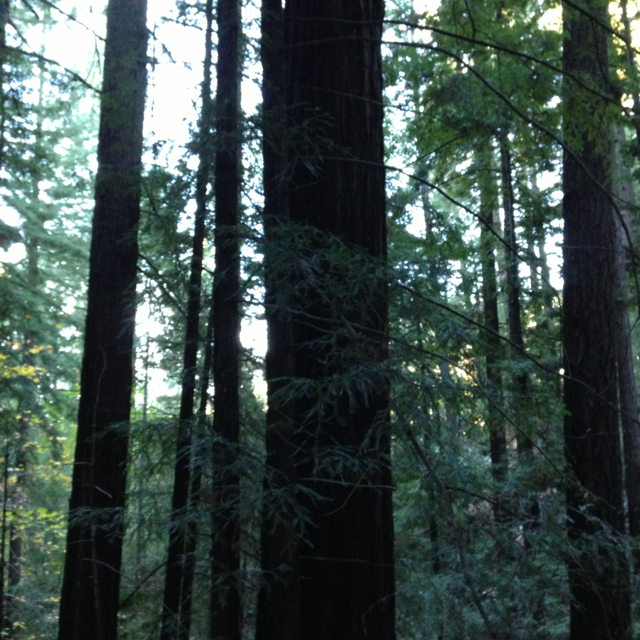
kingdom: Plantae
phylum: Tracheophyta
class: Pinopsida
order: Pinales
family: Cupressaceae
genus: Sequoia
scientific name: Sequoia sempervirens
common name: Coast redwood
